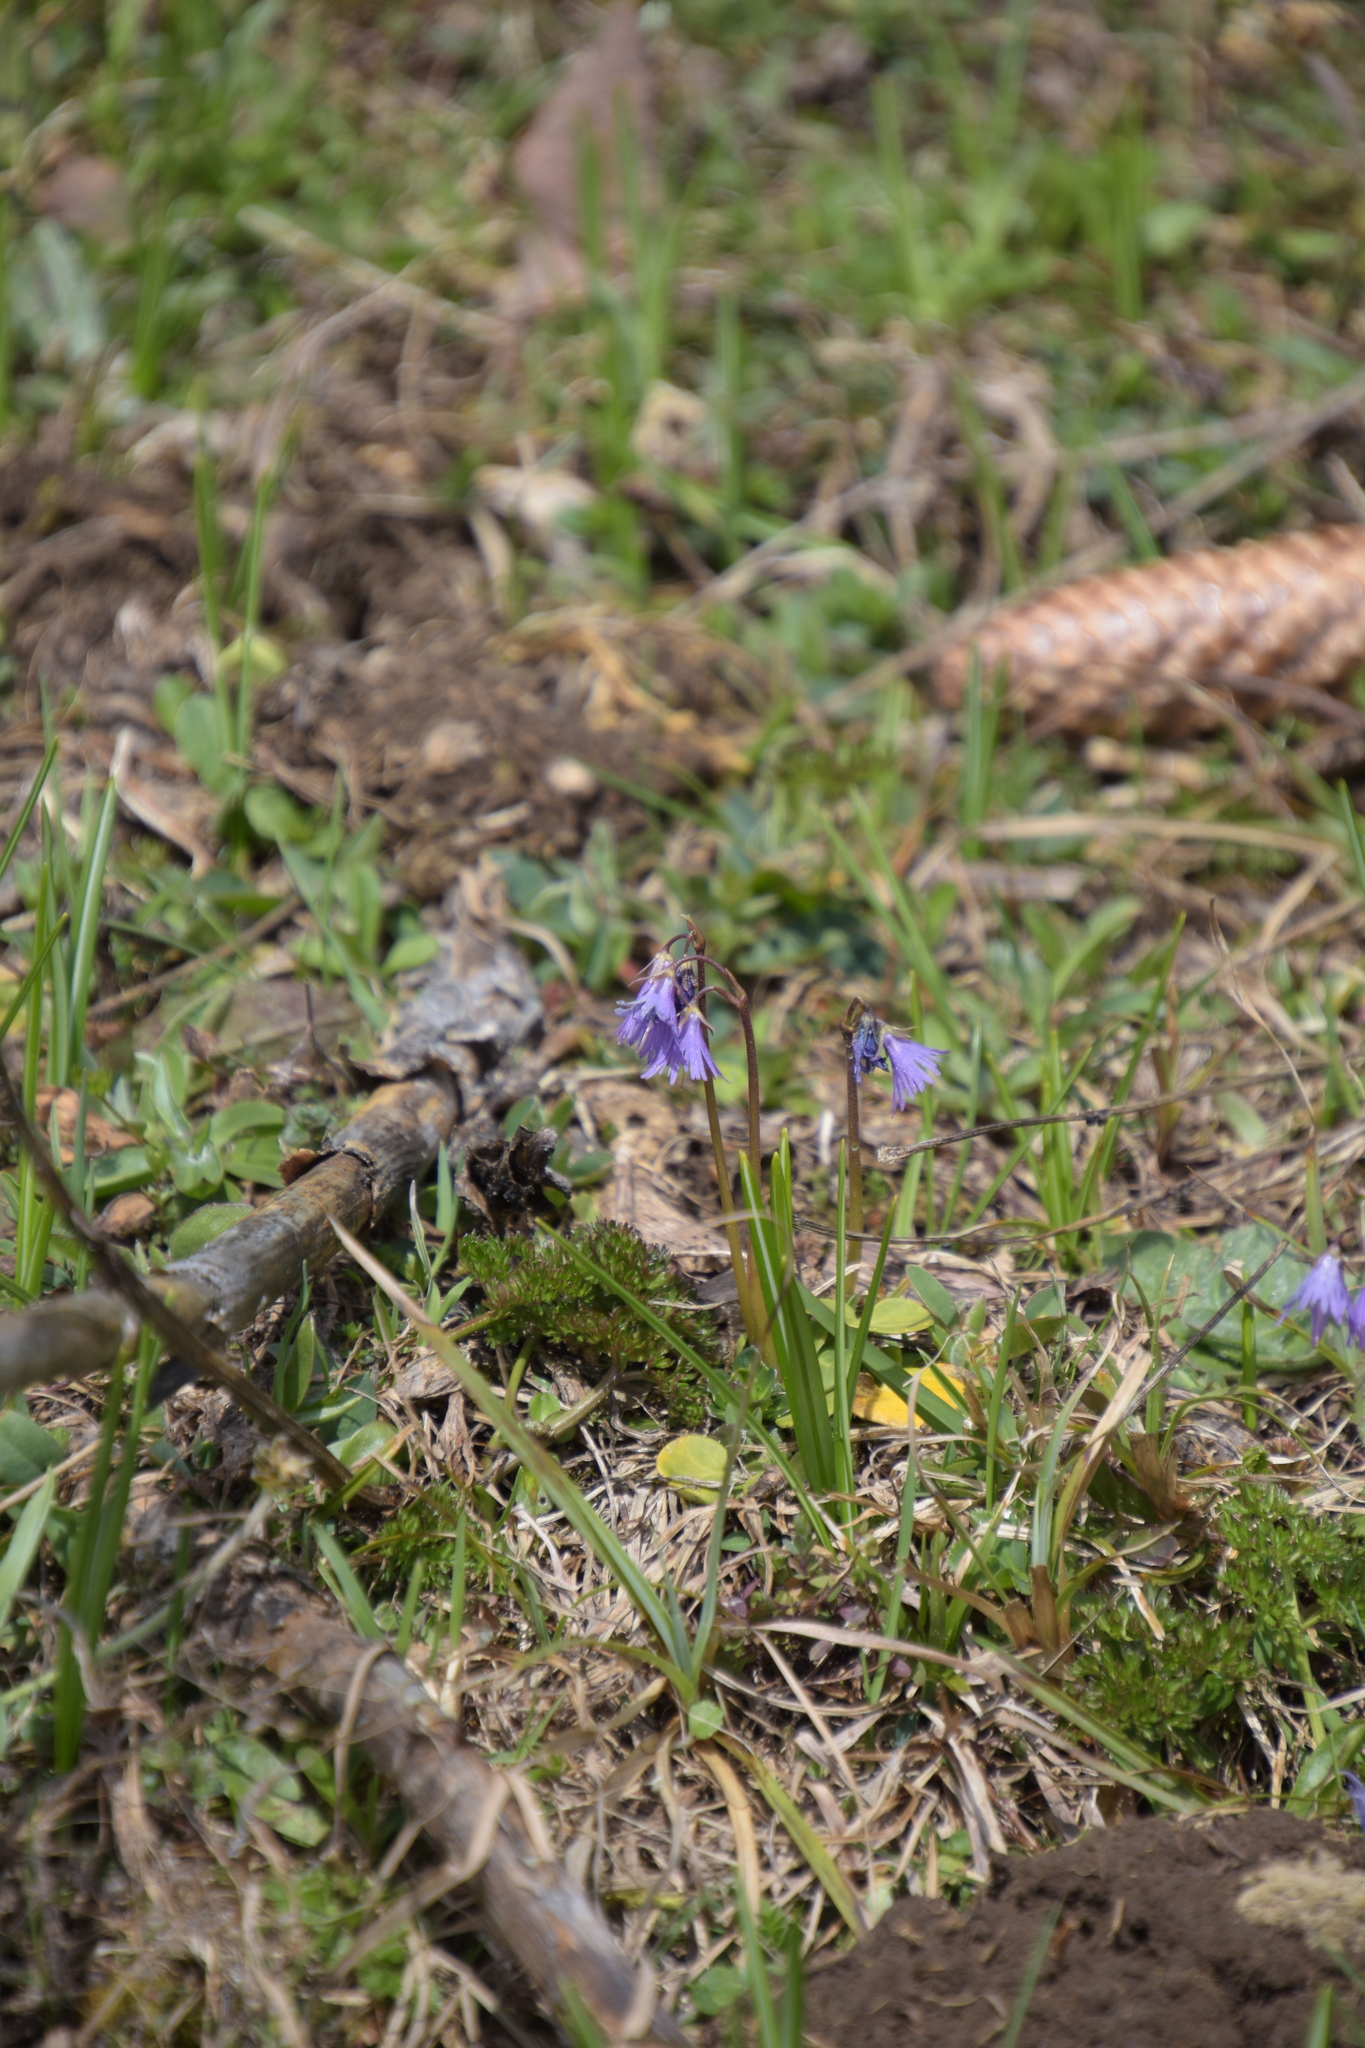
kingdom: Plantae
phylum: Tracheophyta
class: Magnoliopsida
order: Ericales
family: Primulaceae
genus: Soldanella
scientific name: Soldanella alpina
